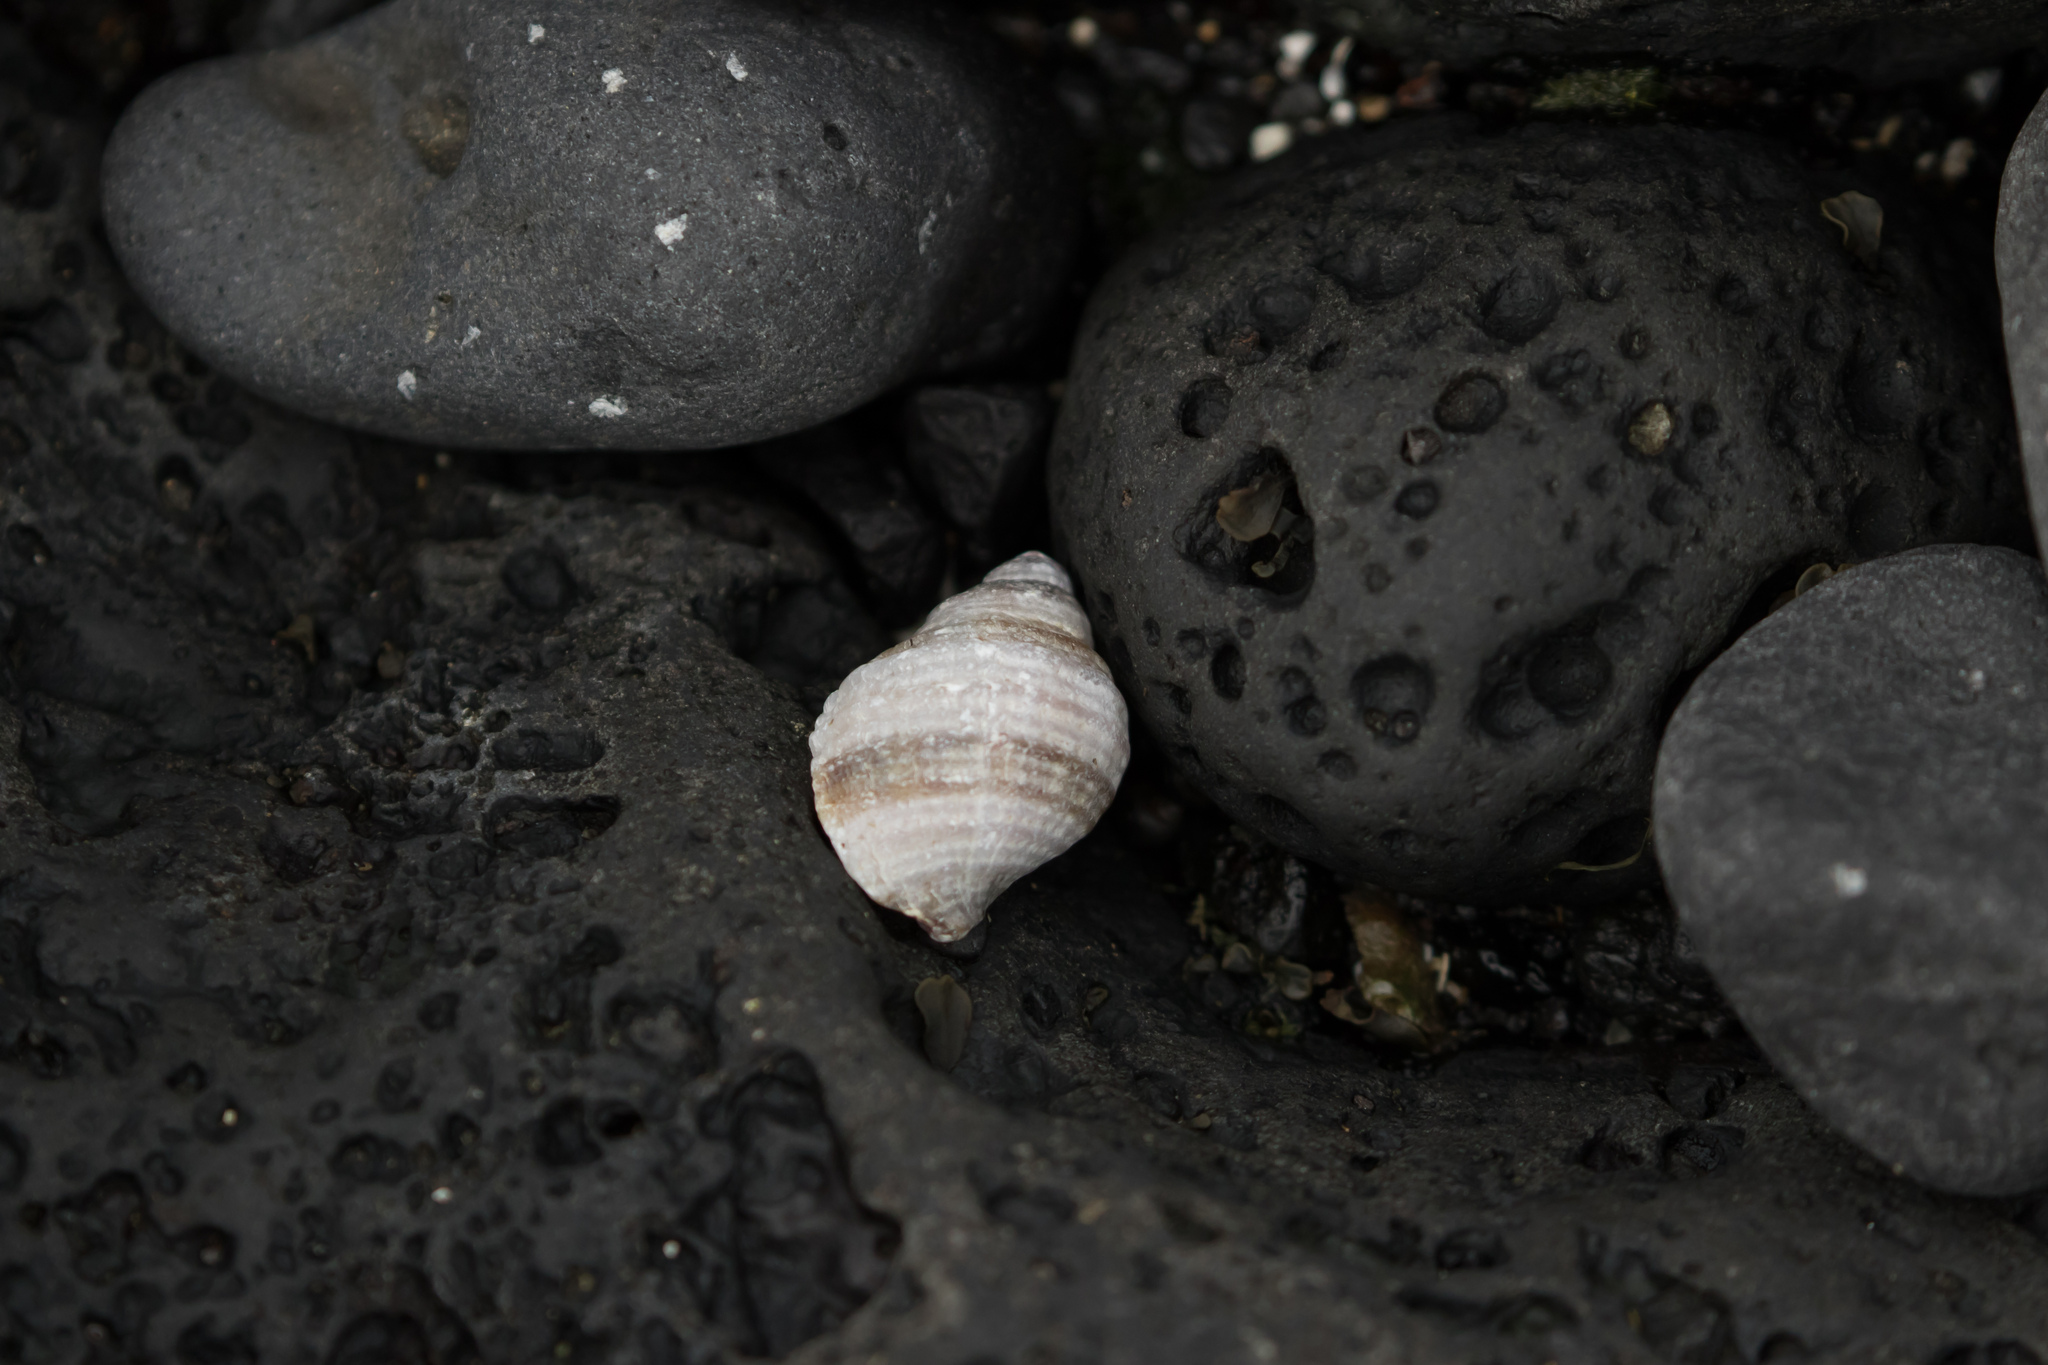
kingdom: Animalia
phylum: Mollusca
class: Gastropoda
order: Neogastropoda
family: Muricidae
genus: Nucella
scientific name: Nucella lapillus
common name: Dog whelk
